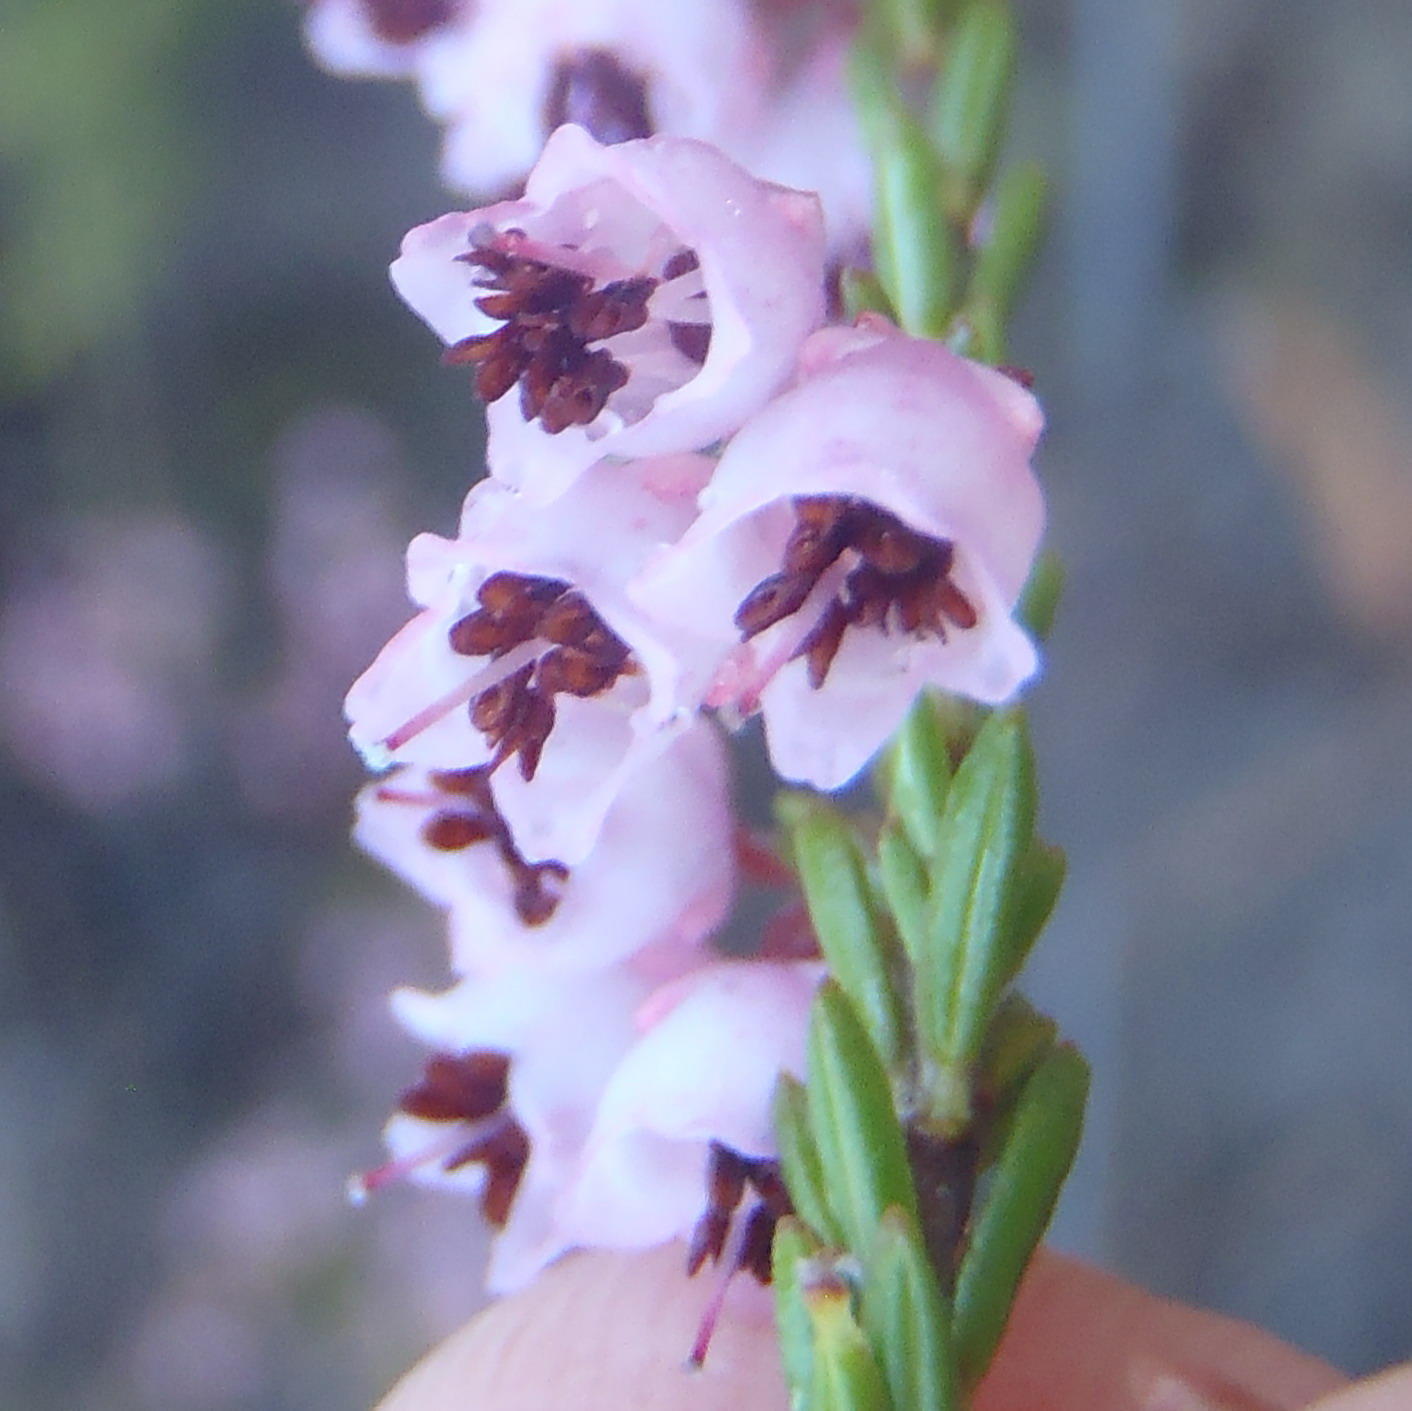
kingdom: Plantae
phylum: Tracheophyta
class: Magnoliopsida
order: Ericales
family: Ericaceae
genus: Erica
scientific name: Erica umbelliflora
